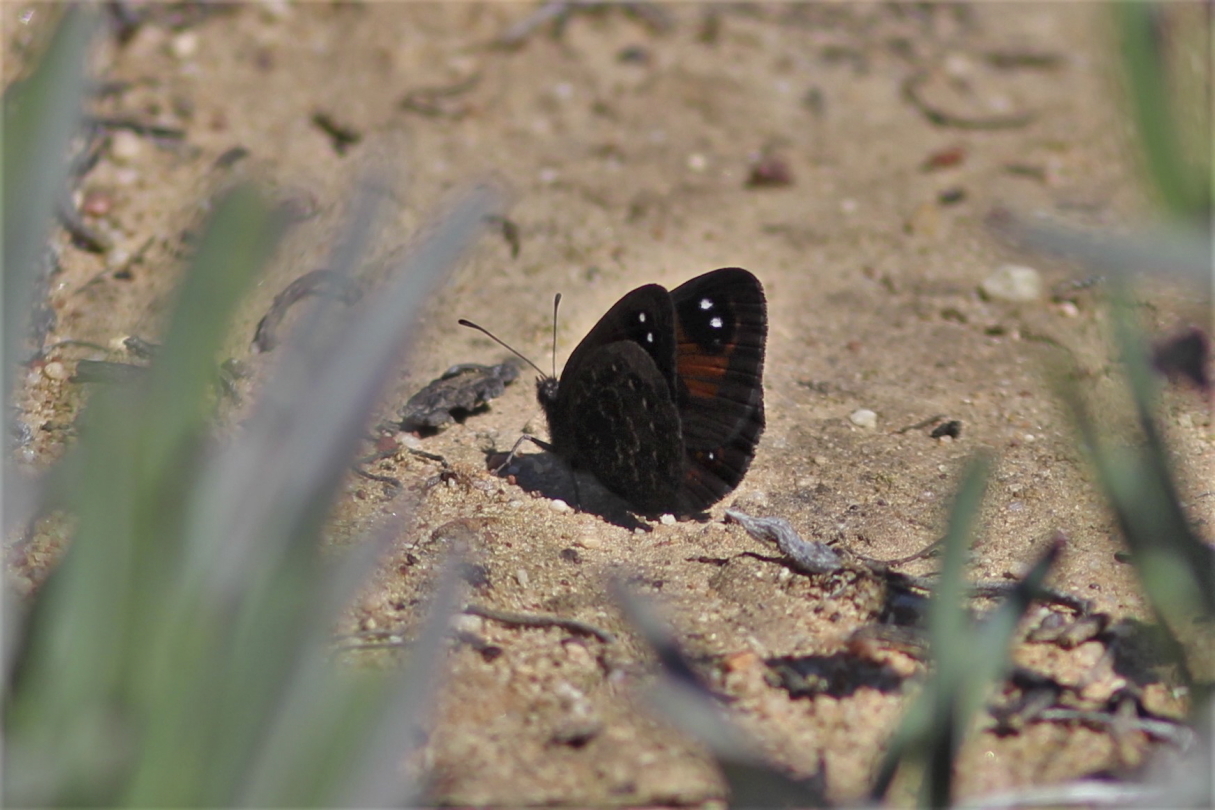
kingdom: Animalia
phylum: Arthropoda
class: Insecta
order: Lepidoptera
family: Nymphalidae
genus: Tarsocera
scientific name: Tarsocera
